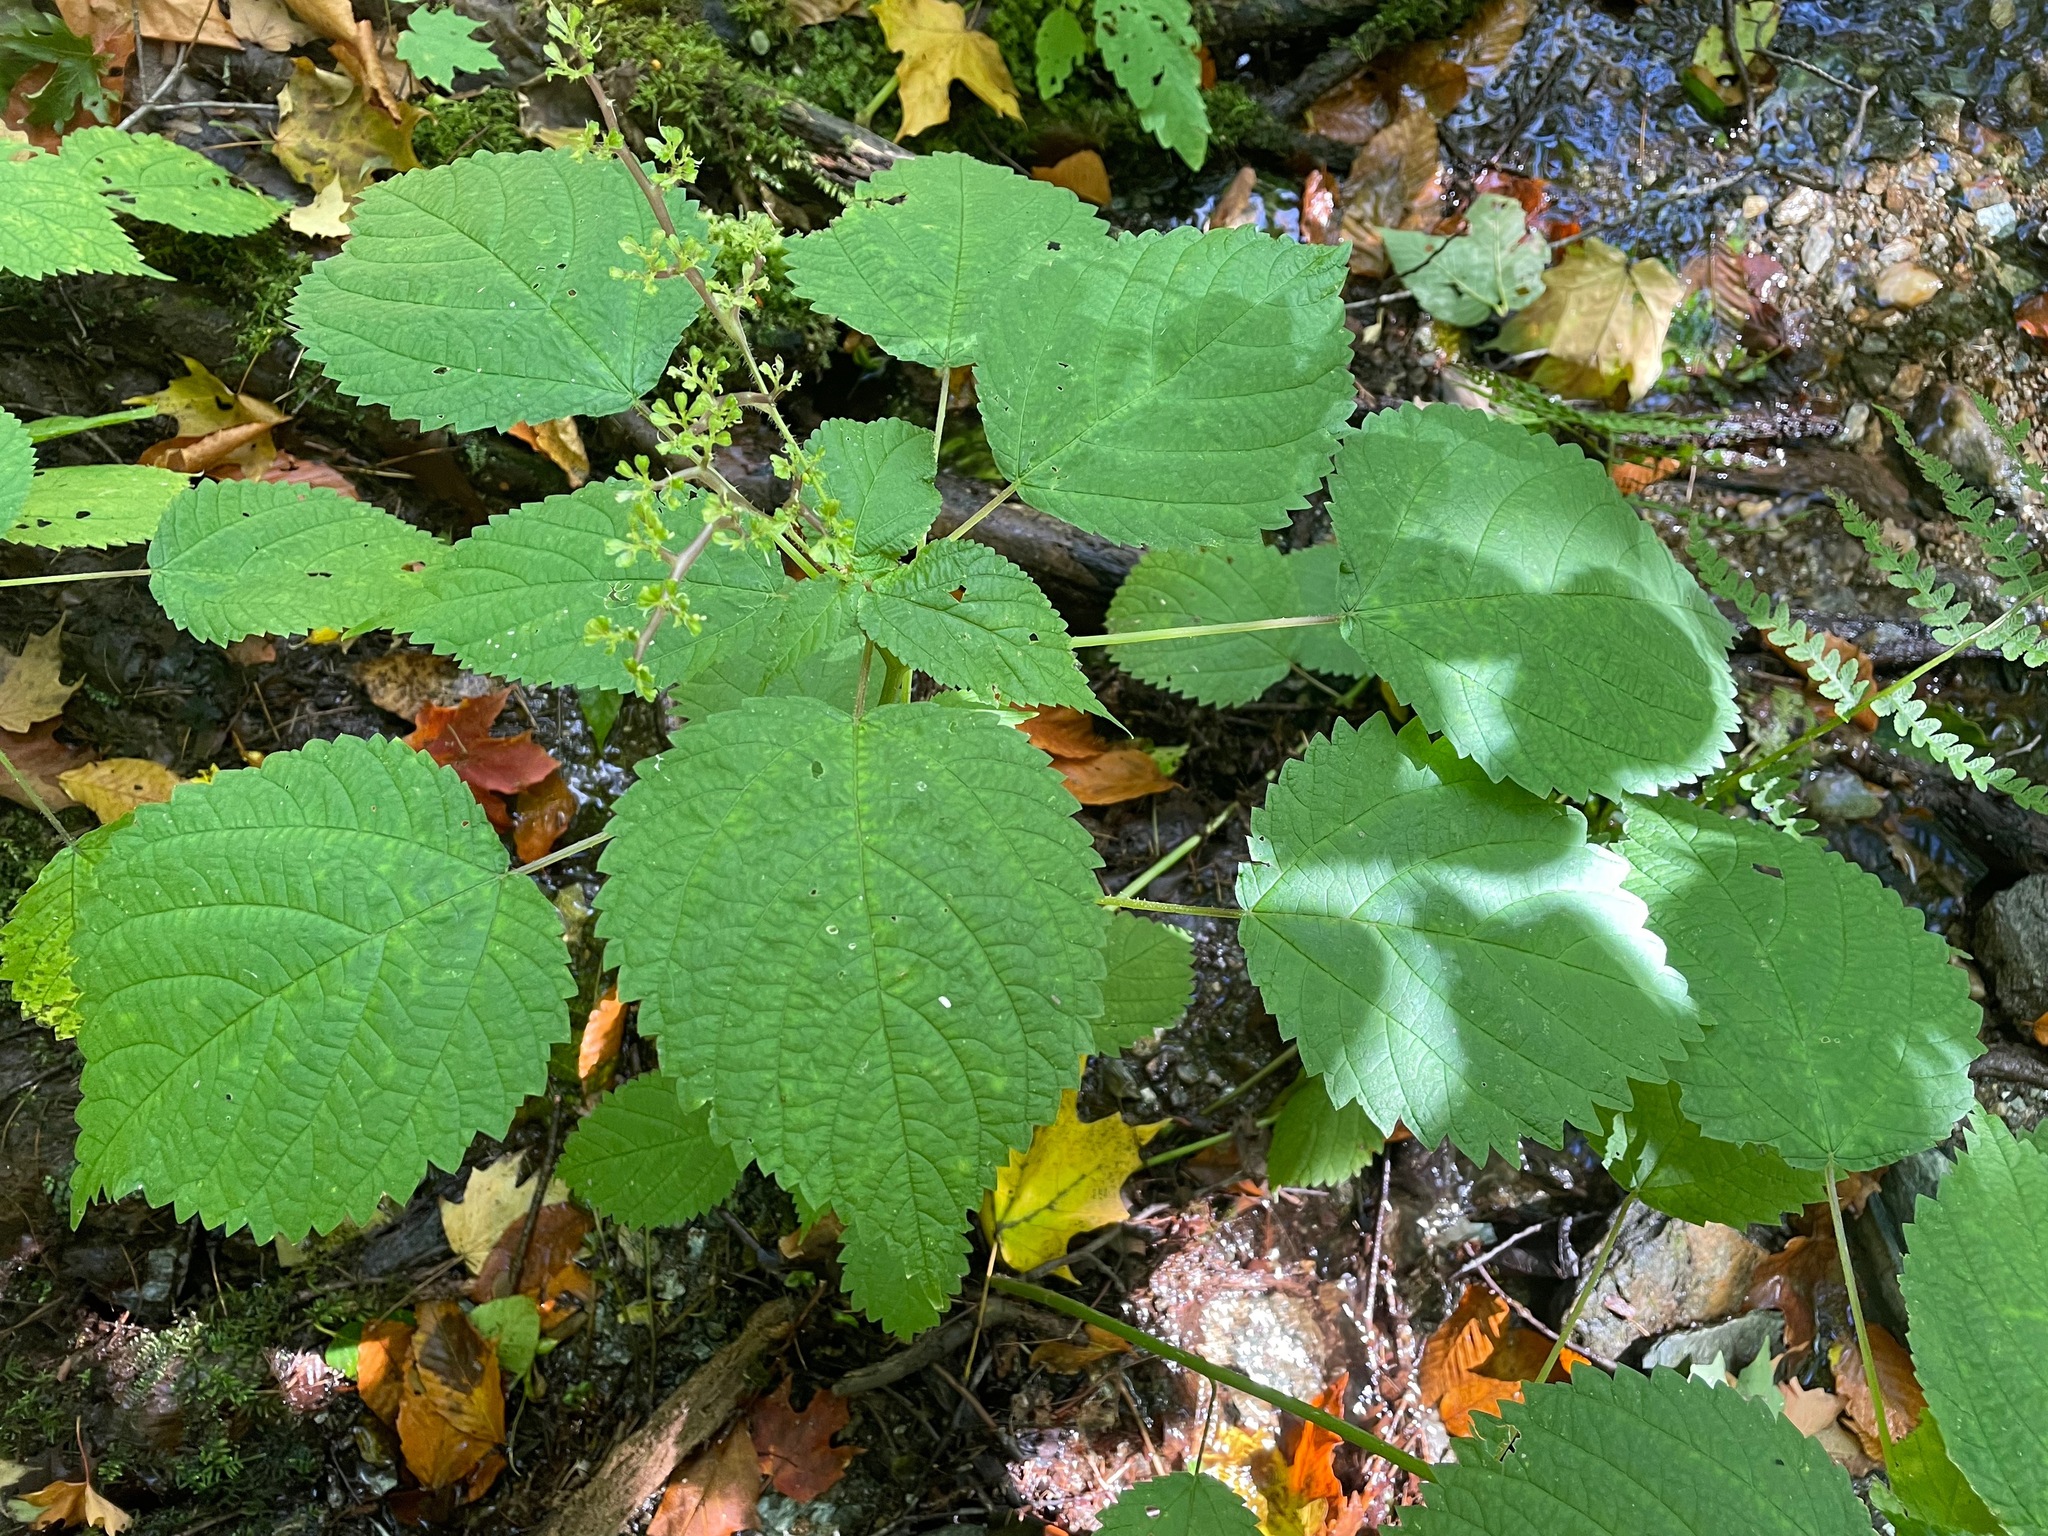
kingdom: Plantae
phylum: Tracheophyta
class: Magnoliopsida
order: Rosales
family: Urticaceae
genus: Laportea
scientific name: Laportea canadensis
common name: Canada nettle
